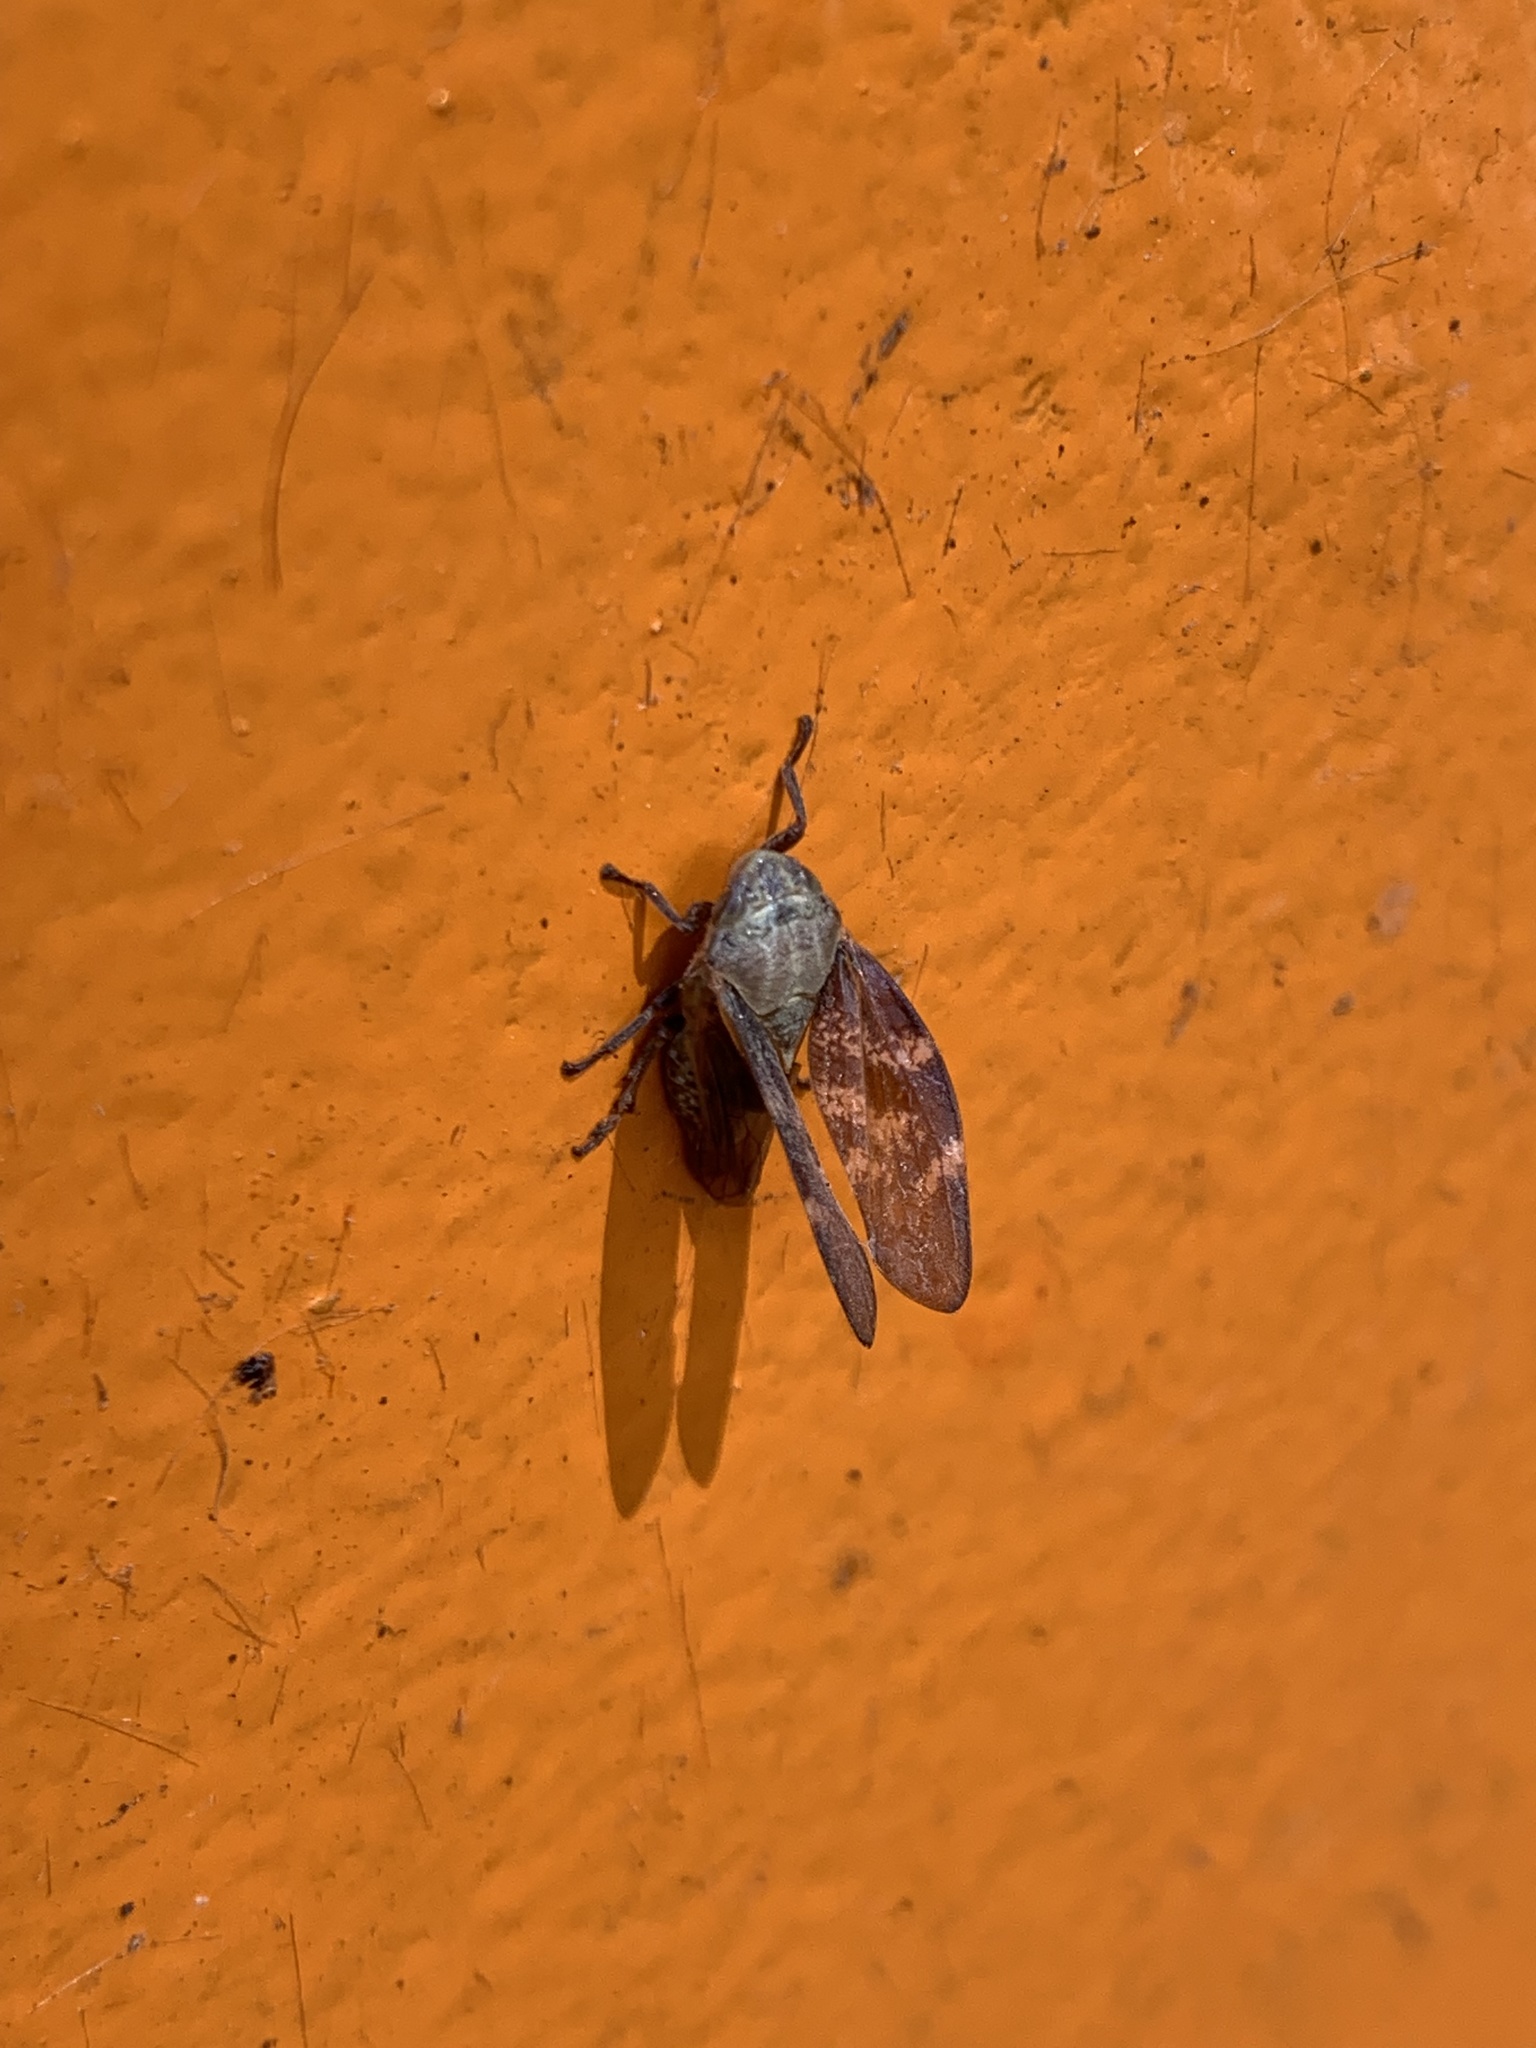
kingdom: Animalia
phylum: Arthropoda
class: Insecta
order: Hemiptera
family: Aphrophoridae
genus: Cephisus
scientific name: Cephisus siccifolius
